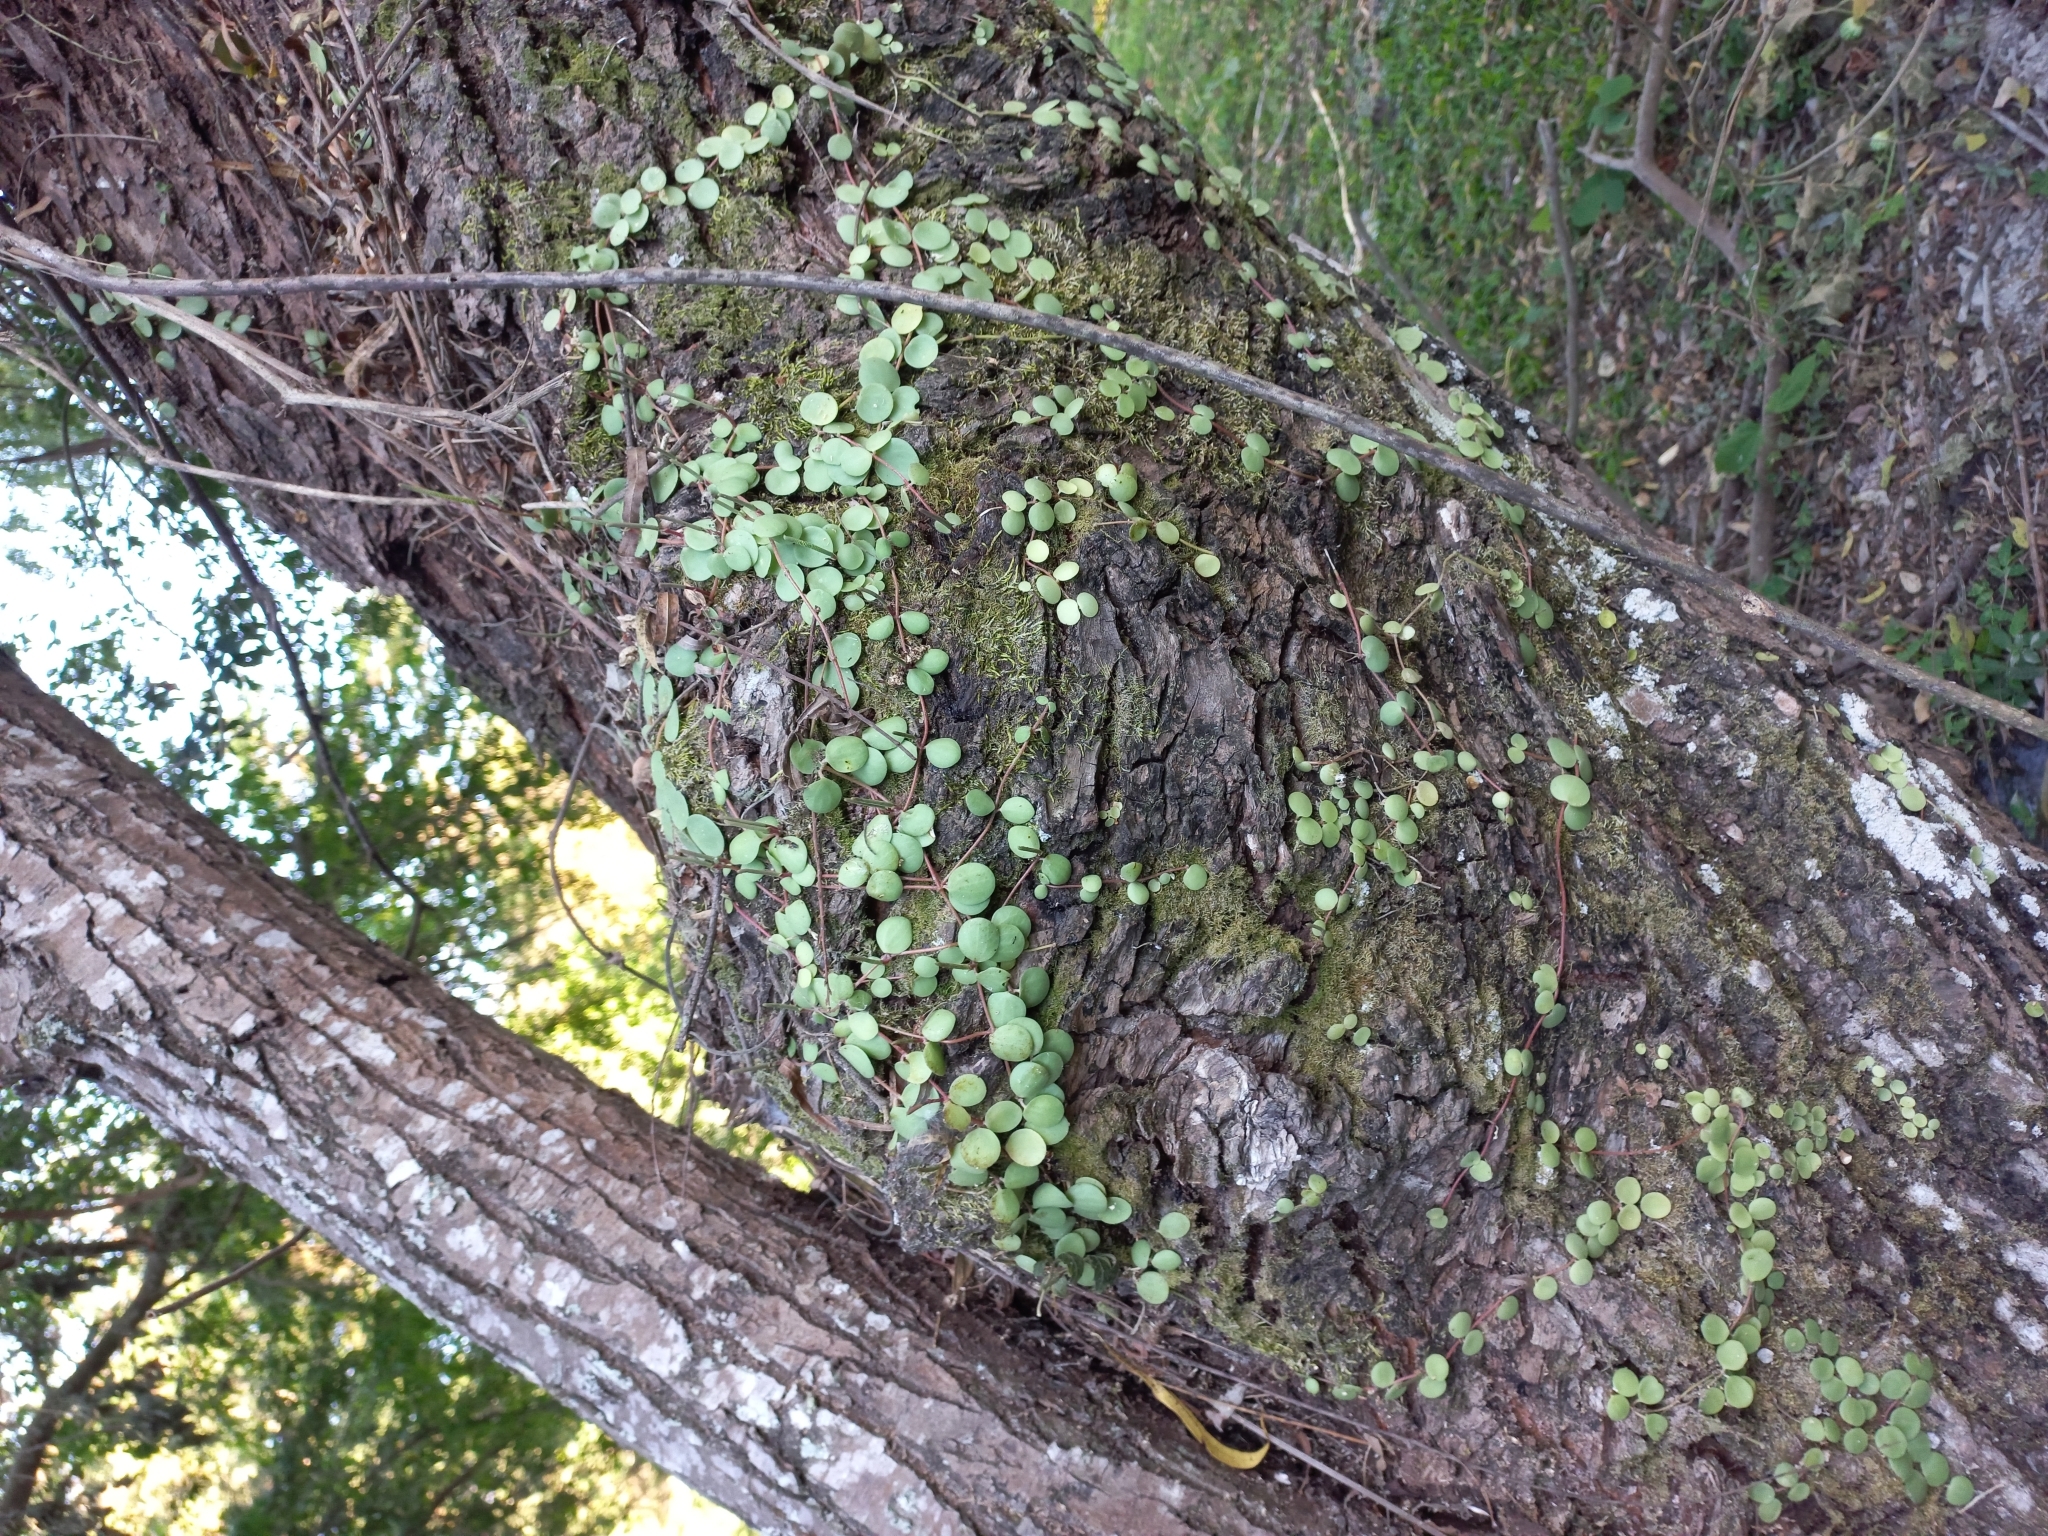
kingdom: Plantae
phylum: Tracheophyta
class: Magnoliopsida
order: Piperales
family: Piperaceae
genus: Peperomia
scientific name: Peperomia cyclophylla
